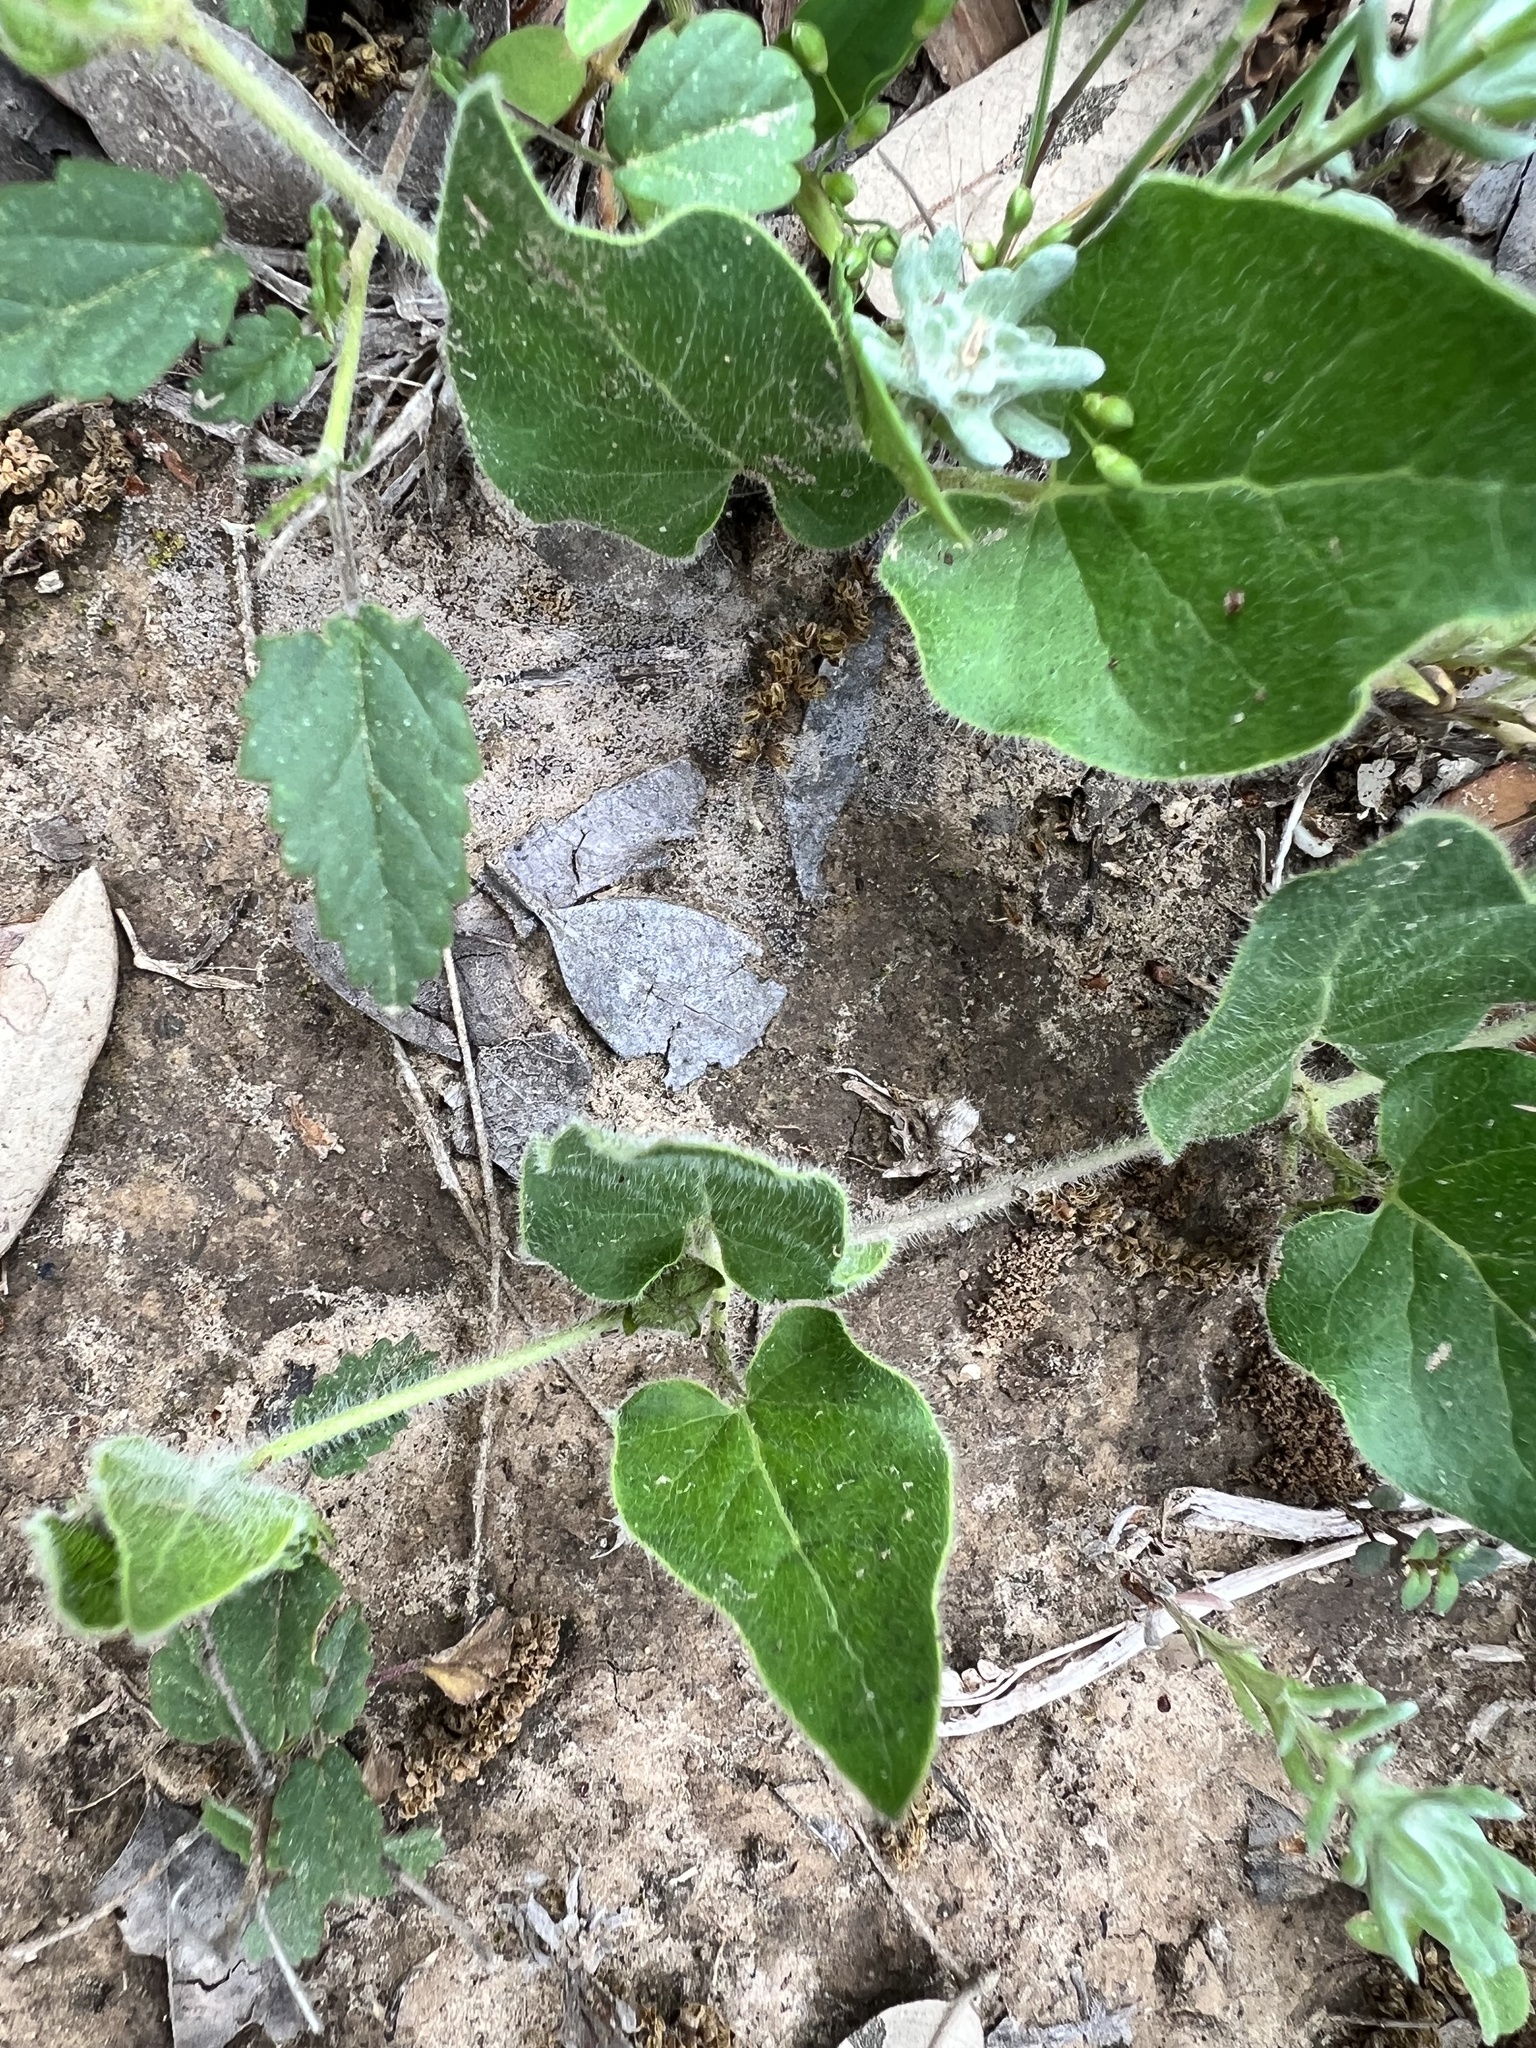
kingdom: Plantae
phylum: Tracheophyta
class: Magnoliopsida
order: Gentianales
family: Apocynaceae
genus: Chthamalia
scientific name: Chthamalia biflora
